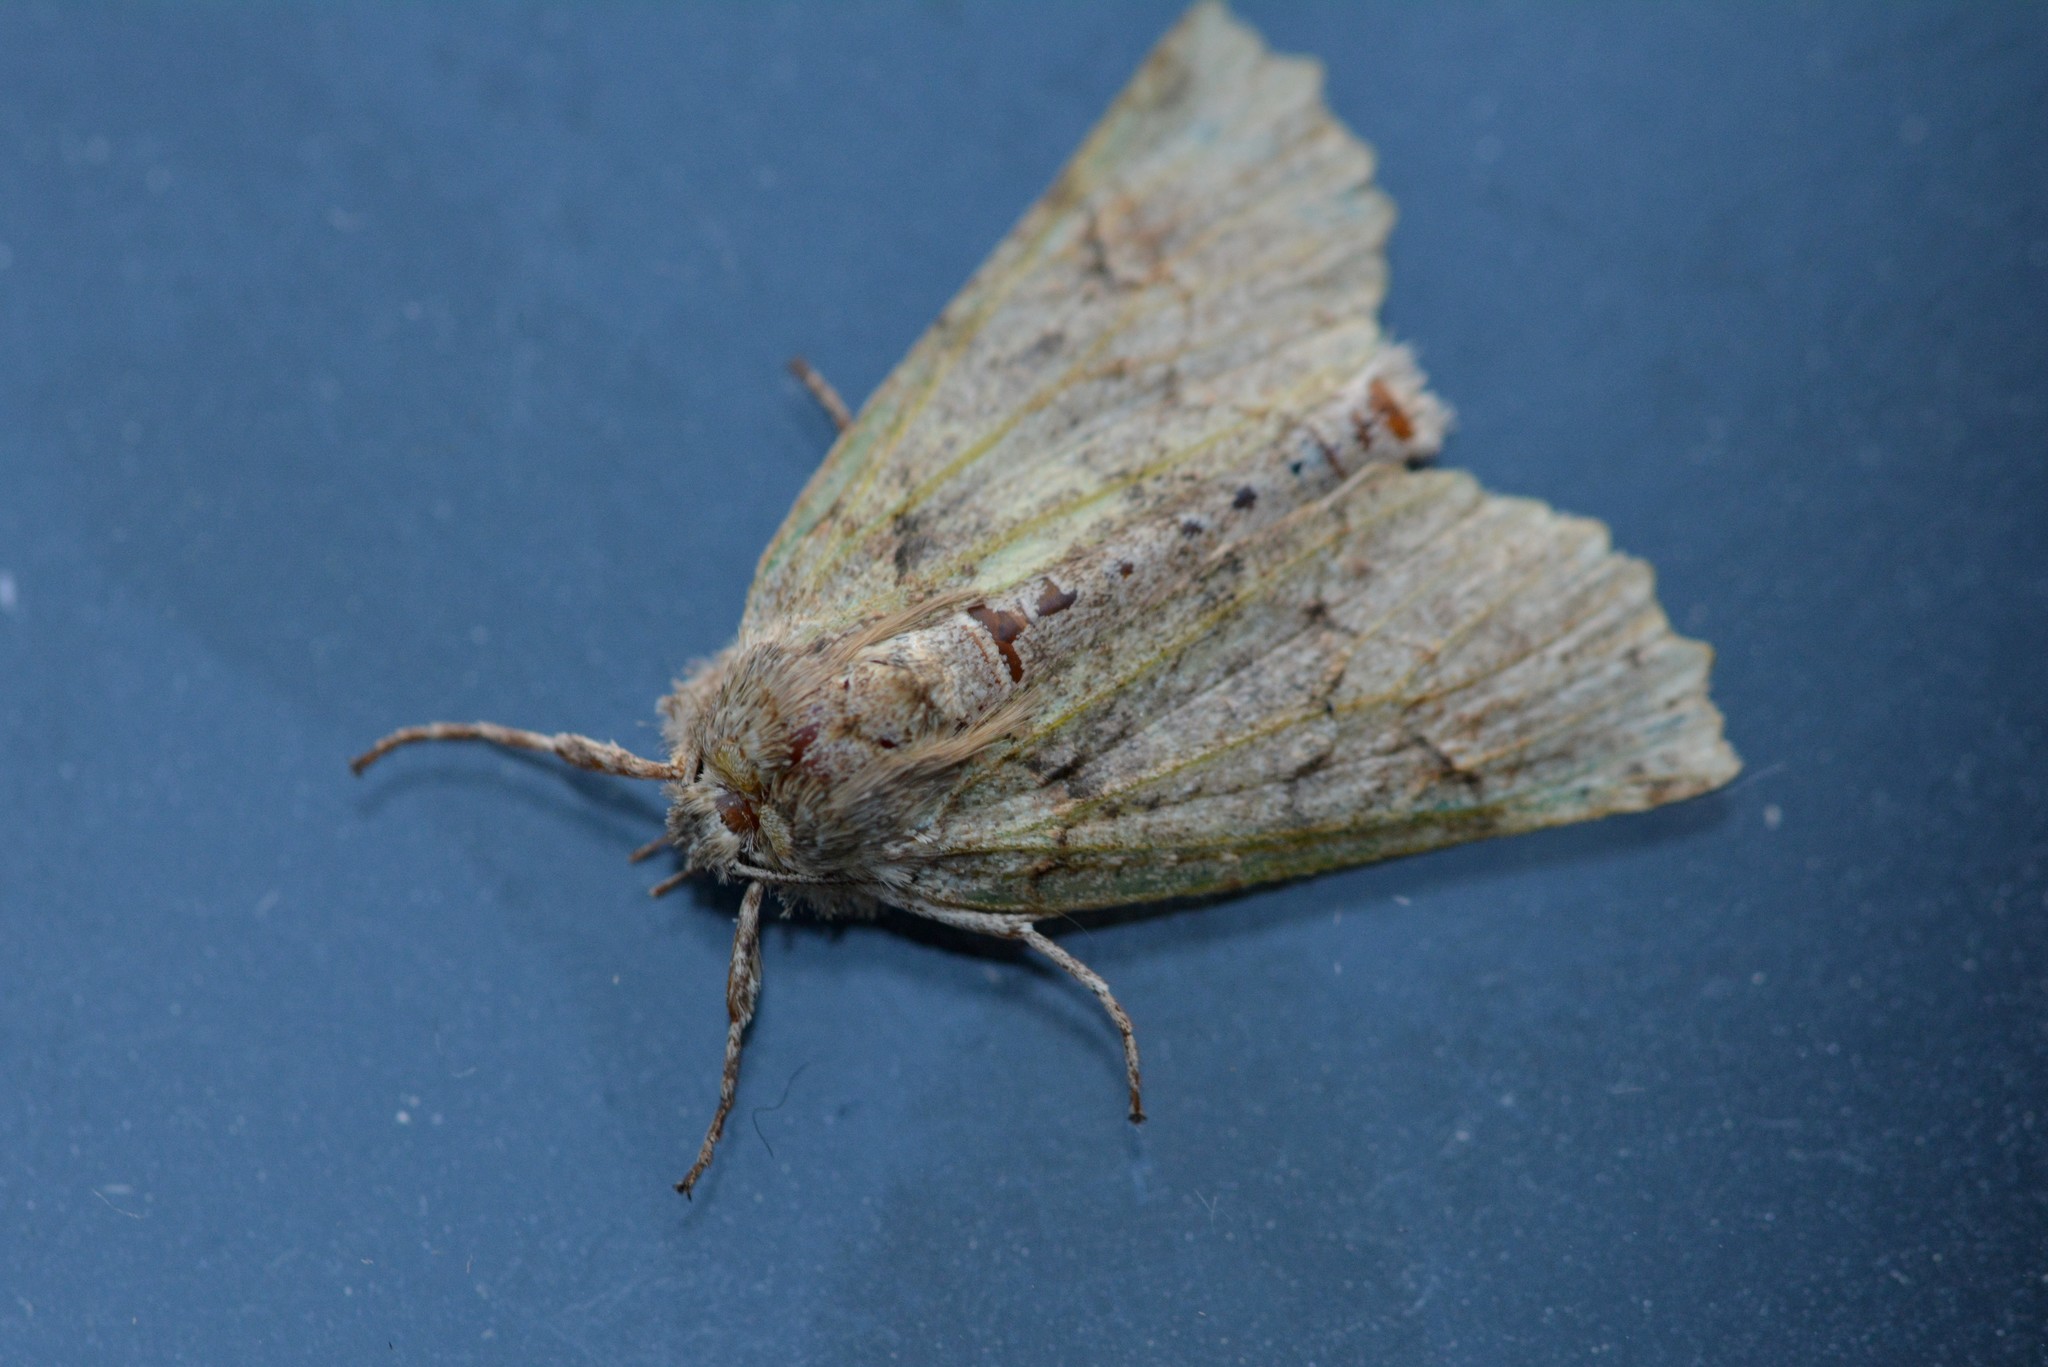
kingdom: Animalia
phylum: Arthropoda
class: Insecta
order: Lepidoptera
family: Geometridae
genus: Declana
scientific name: Declana floccosa
